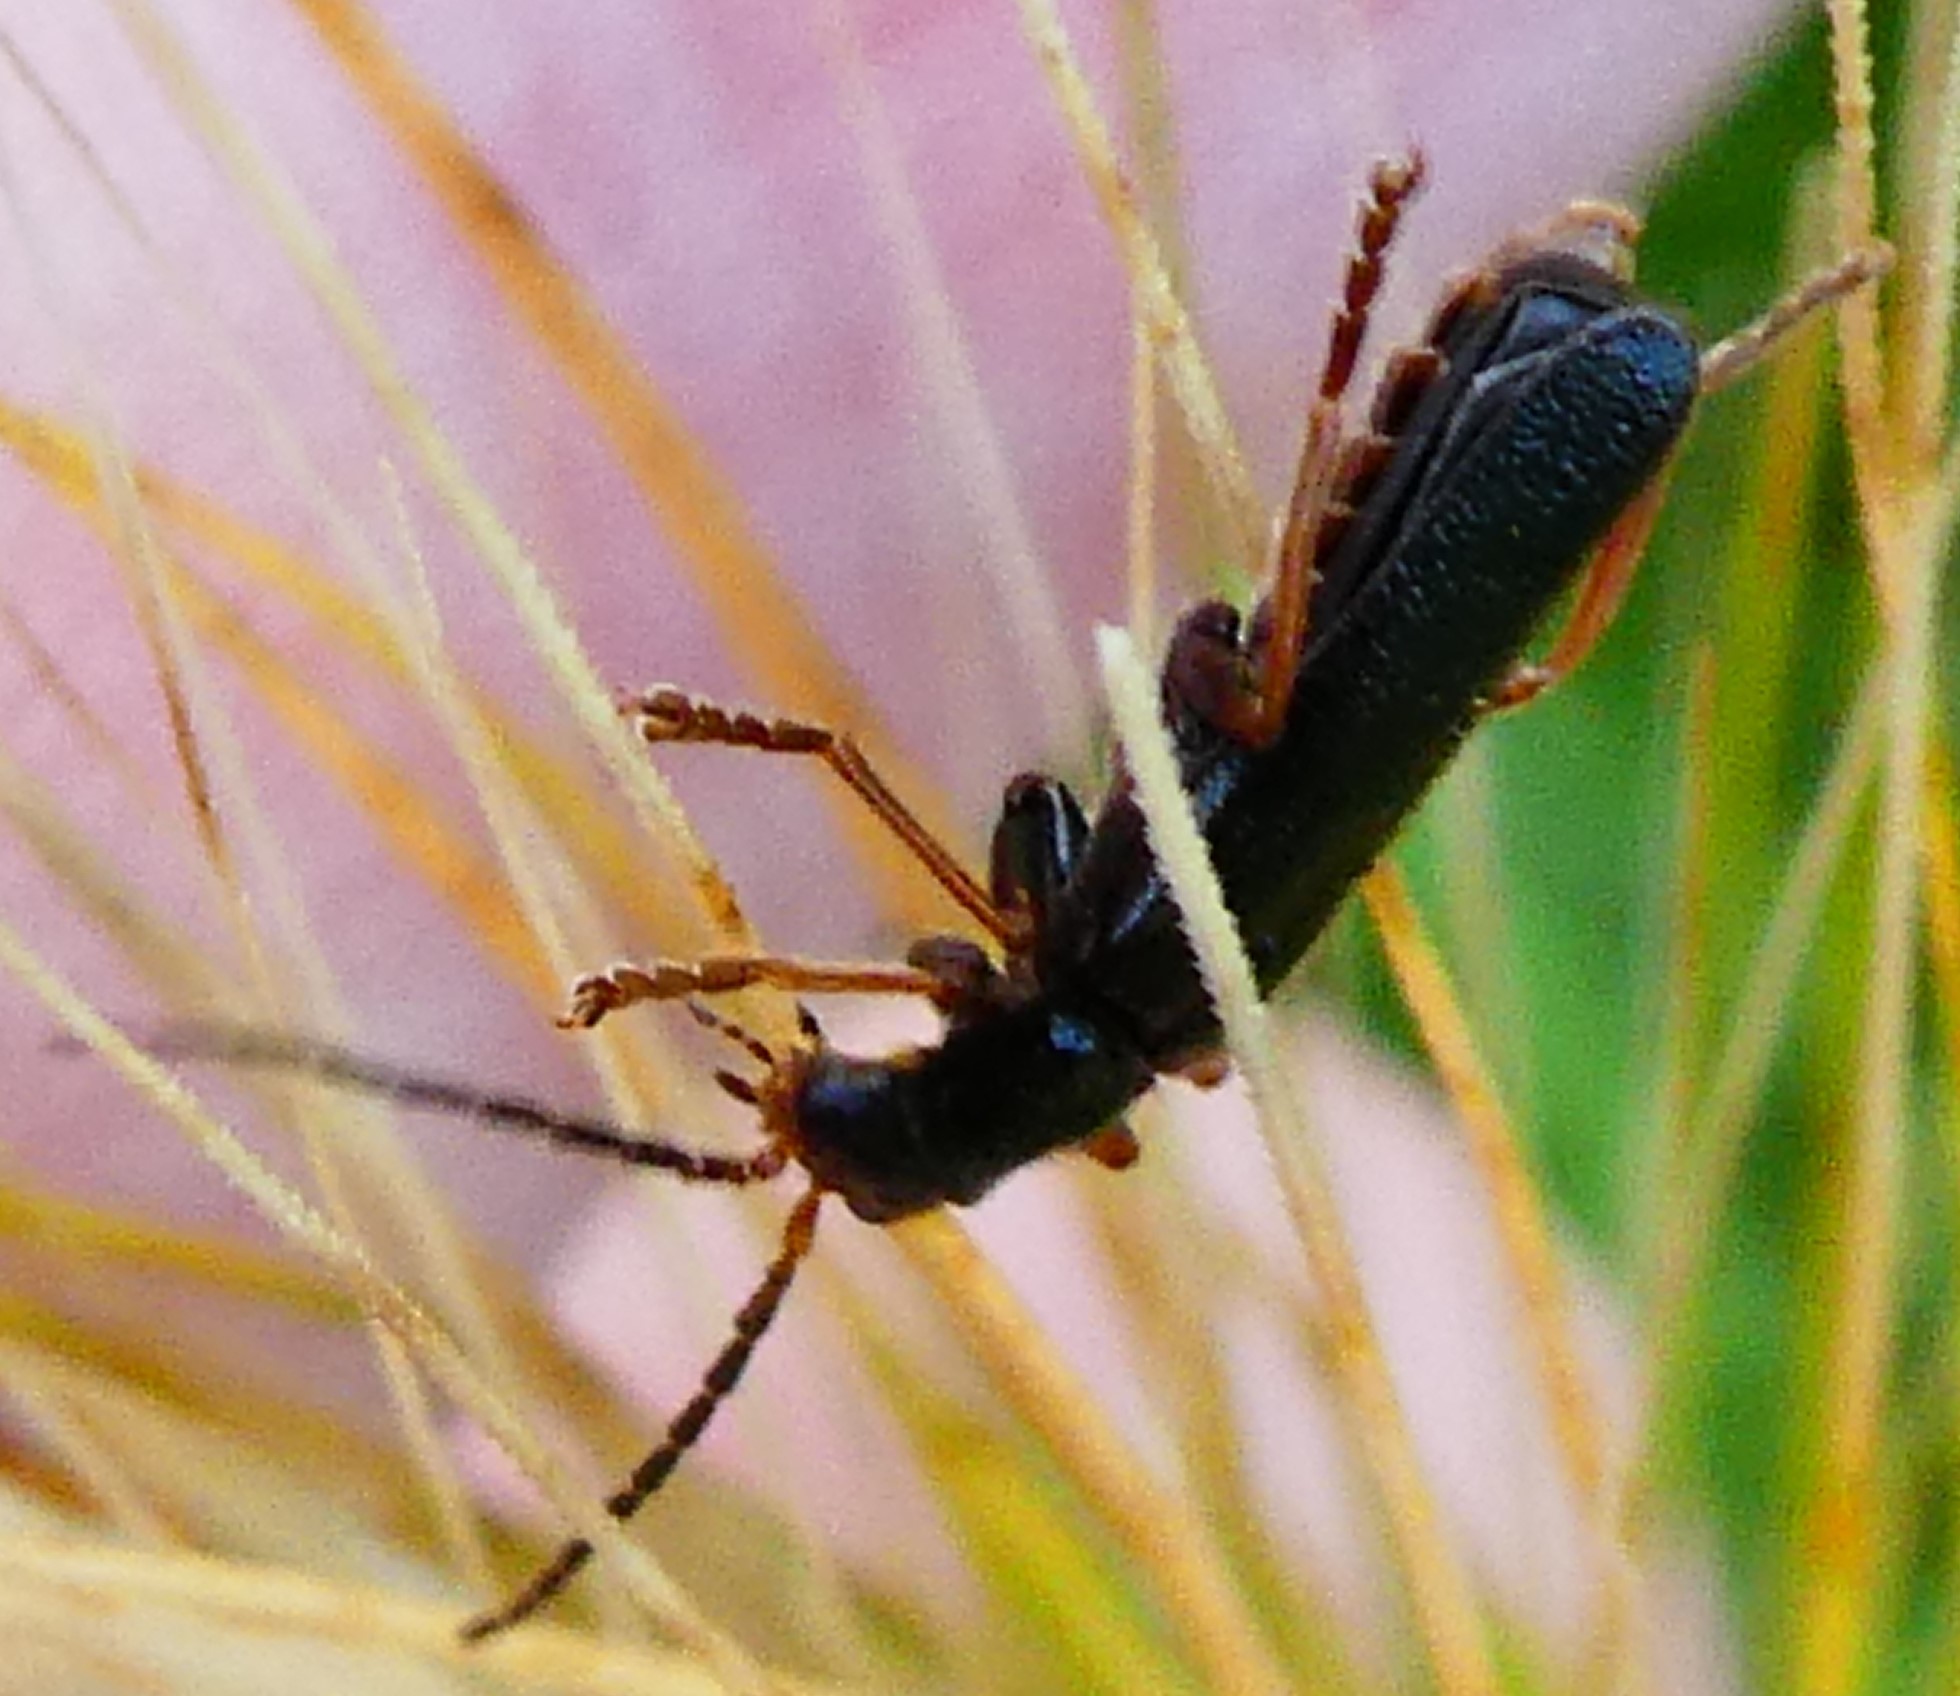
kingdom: Animalia
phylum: Arthropoda
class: Insecta
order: Coleoptera
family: Cantharidae
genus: Cantharis
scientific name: Cantharis flavilabris
